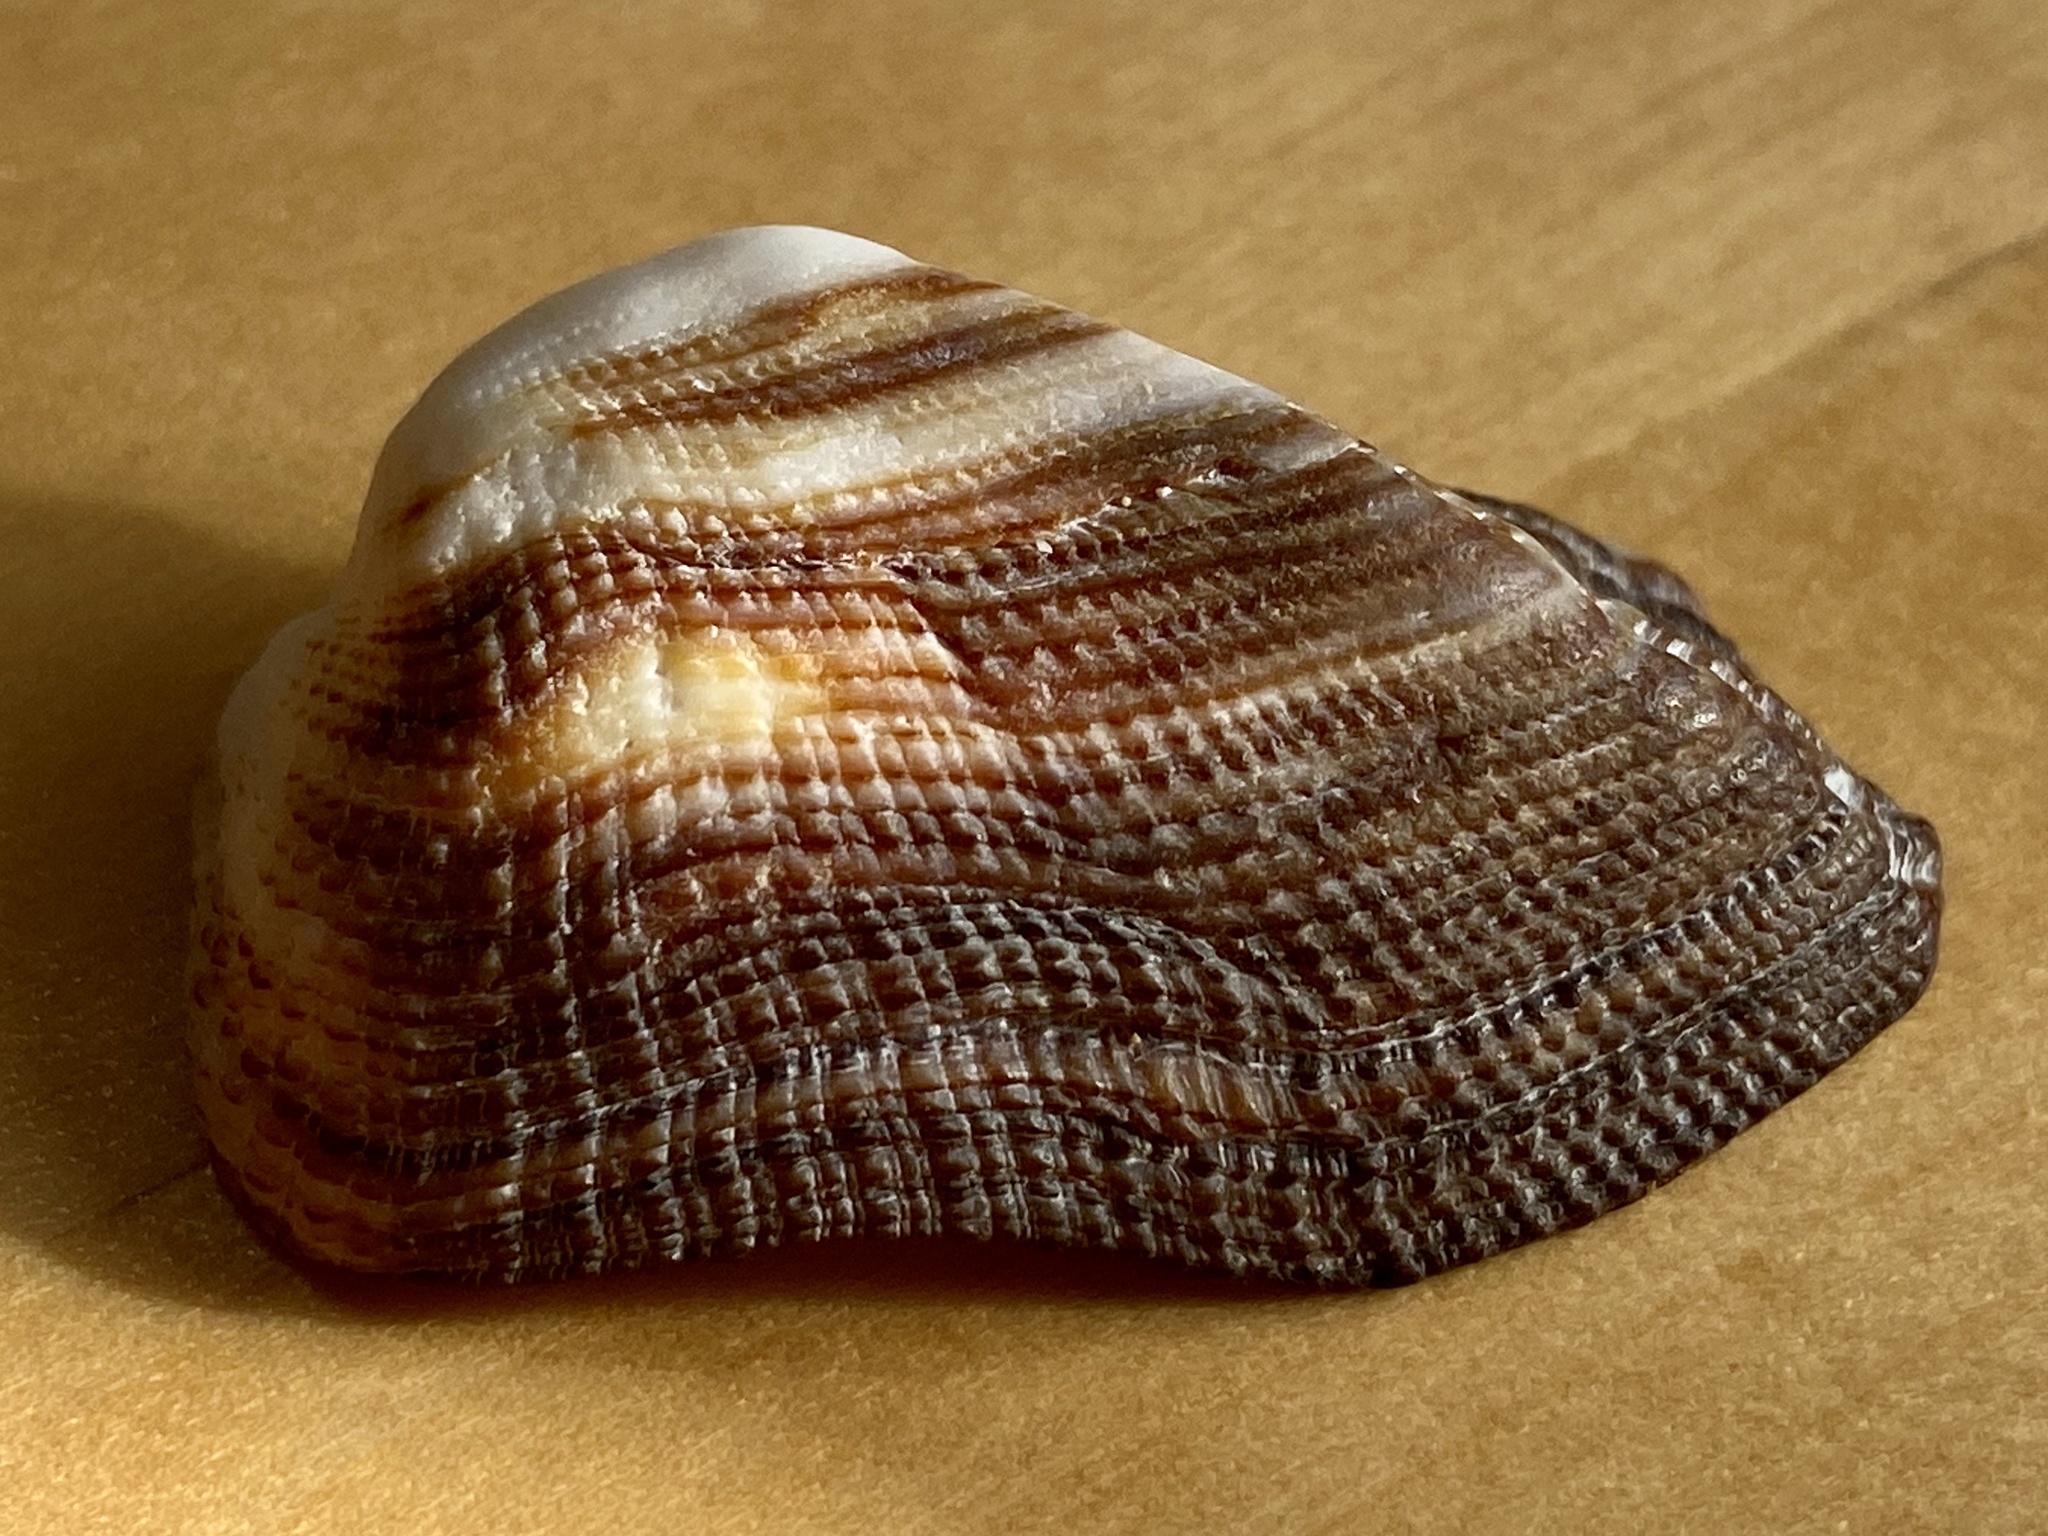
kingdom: Animalia
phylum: Mollusca
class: Bivalvia
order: Arcida
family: Arcidae
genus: Lamarcka
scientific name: Lamarcka imbricata
